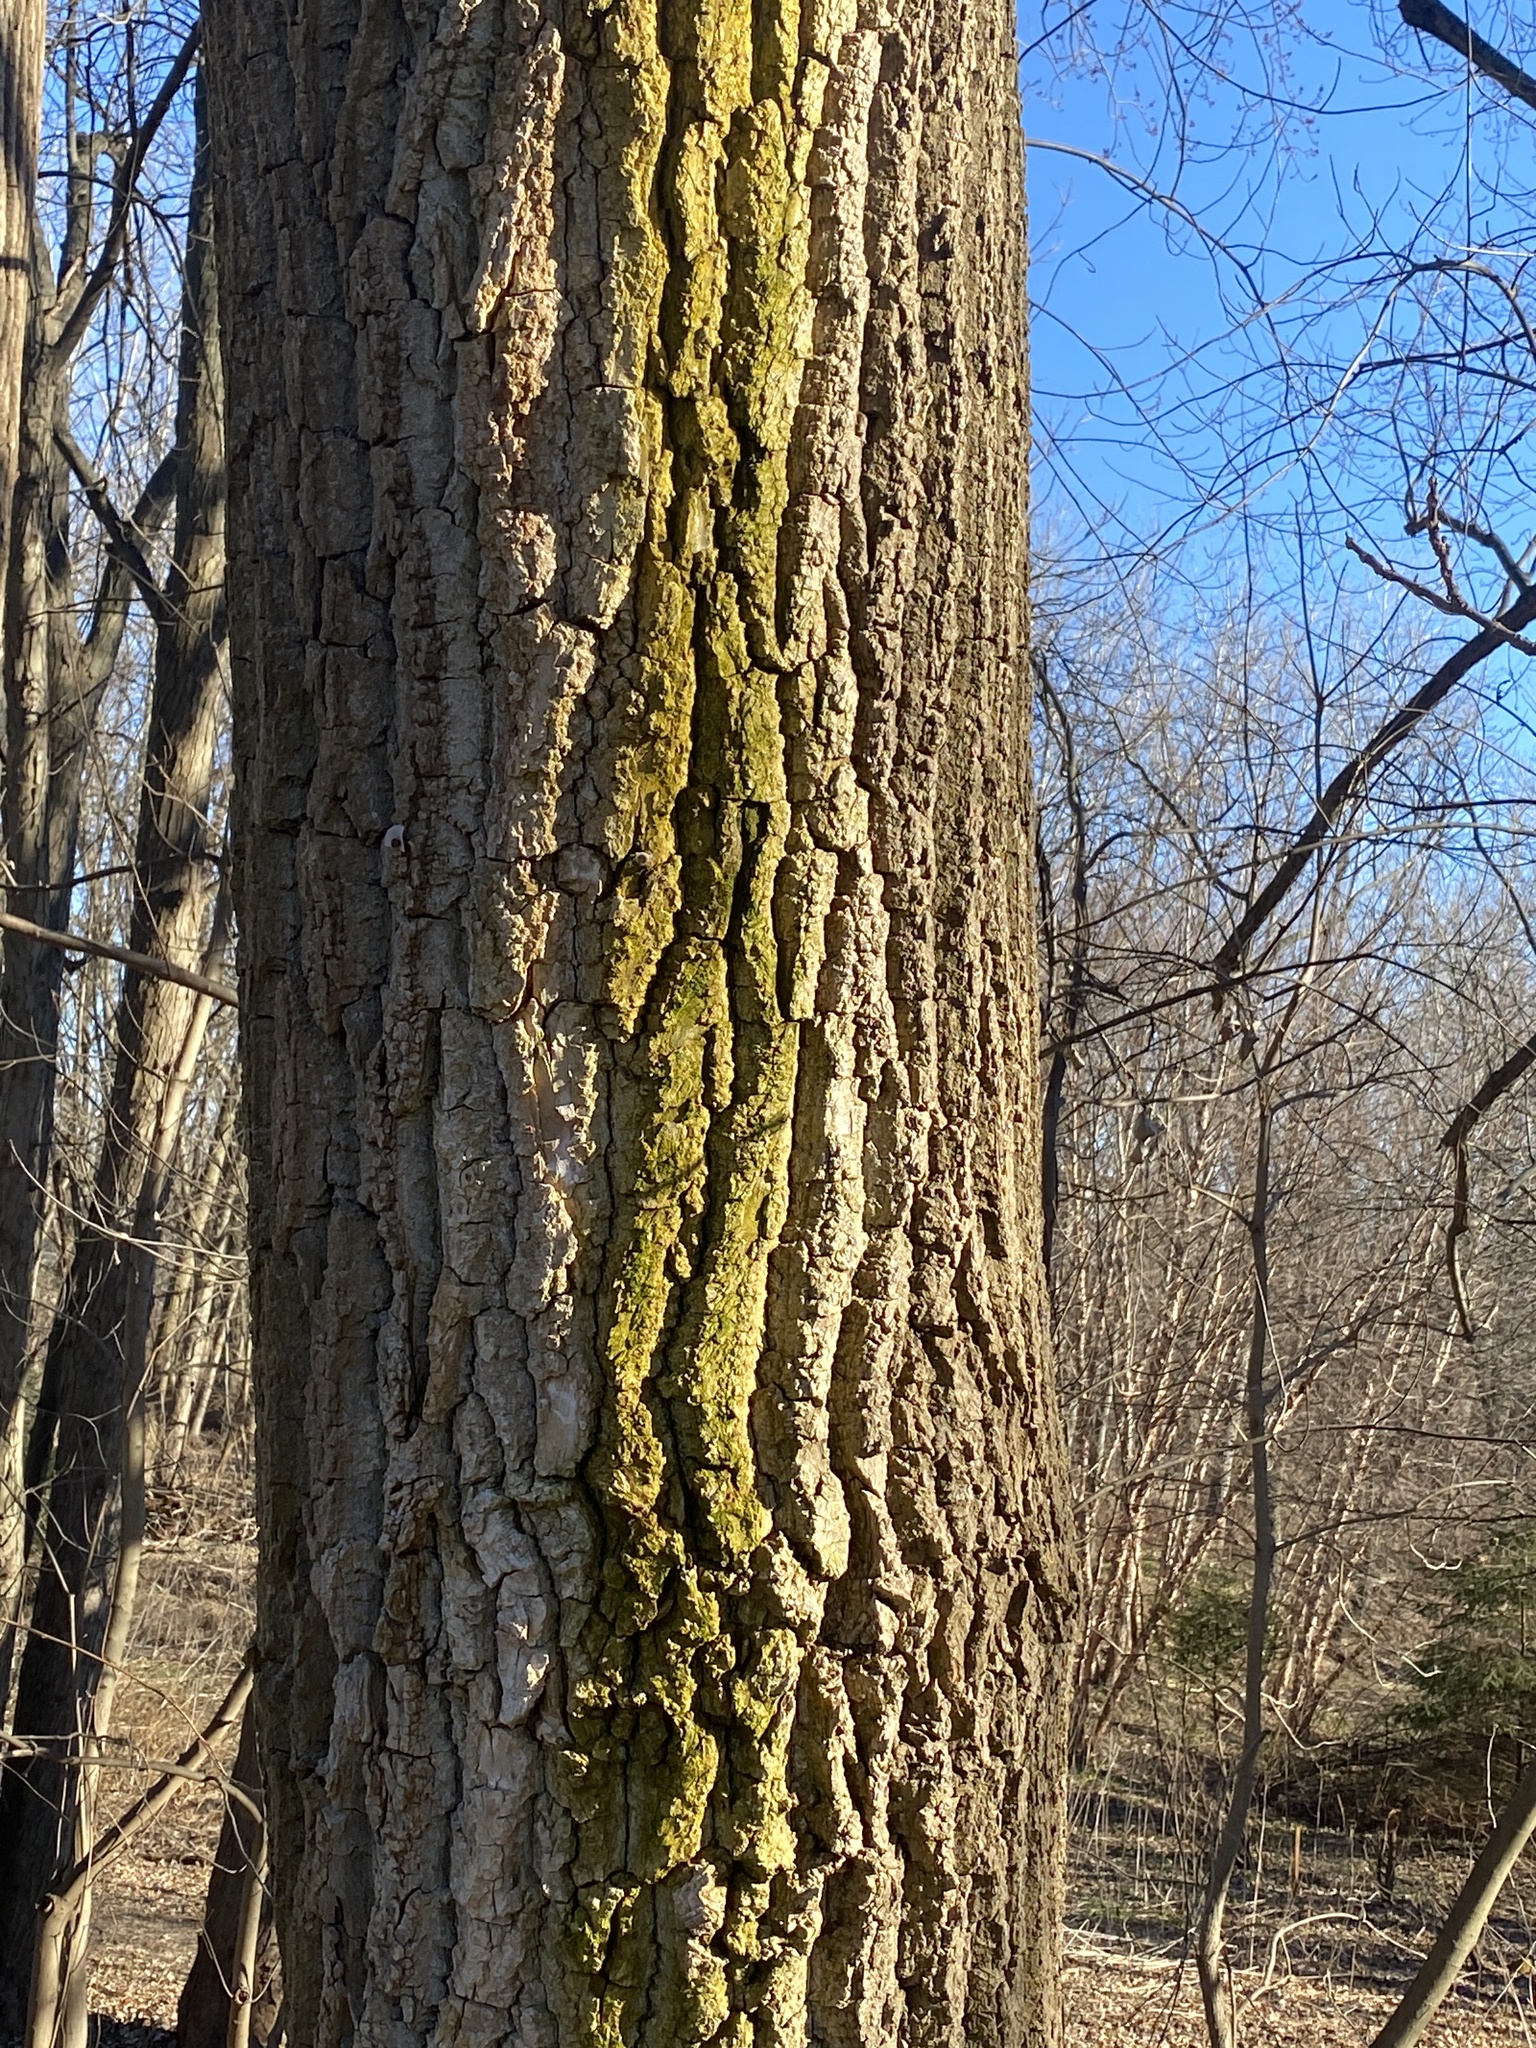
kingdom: Plantae
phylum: Tracheophyta
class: Magnoliopsida
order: Malpighiales
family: Salicaceae
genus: Populus
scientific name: Populus deltoides
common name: Eastern cottonwood
